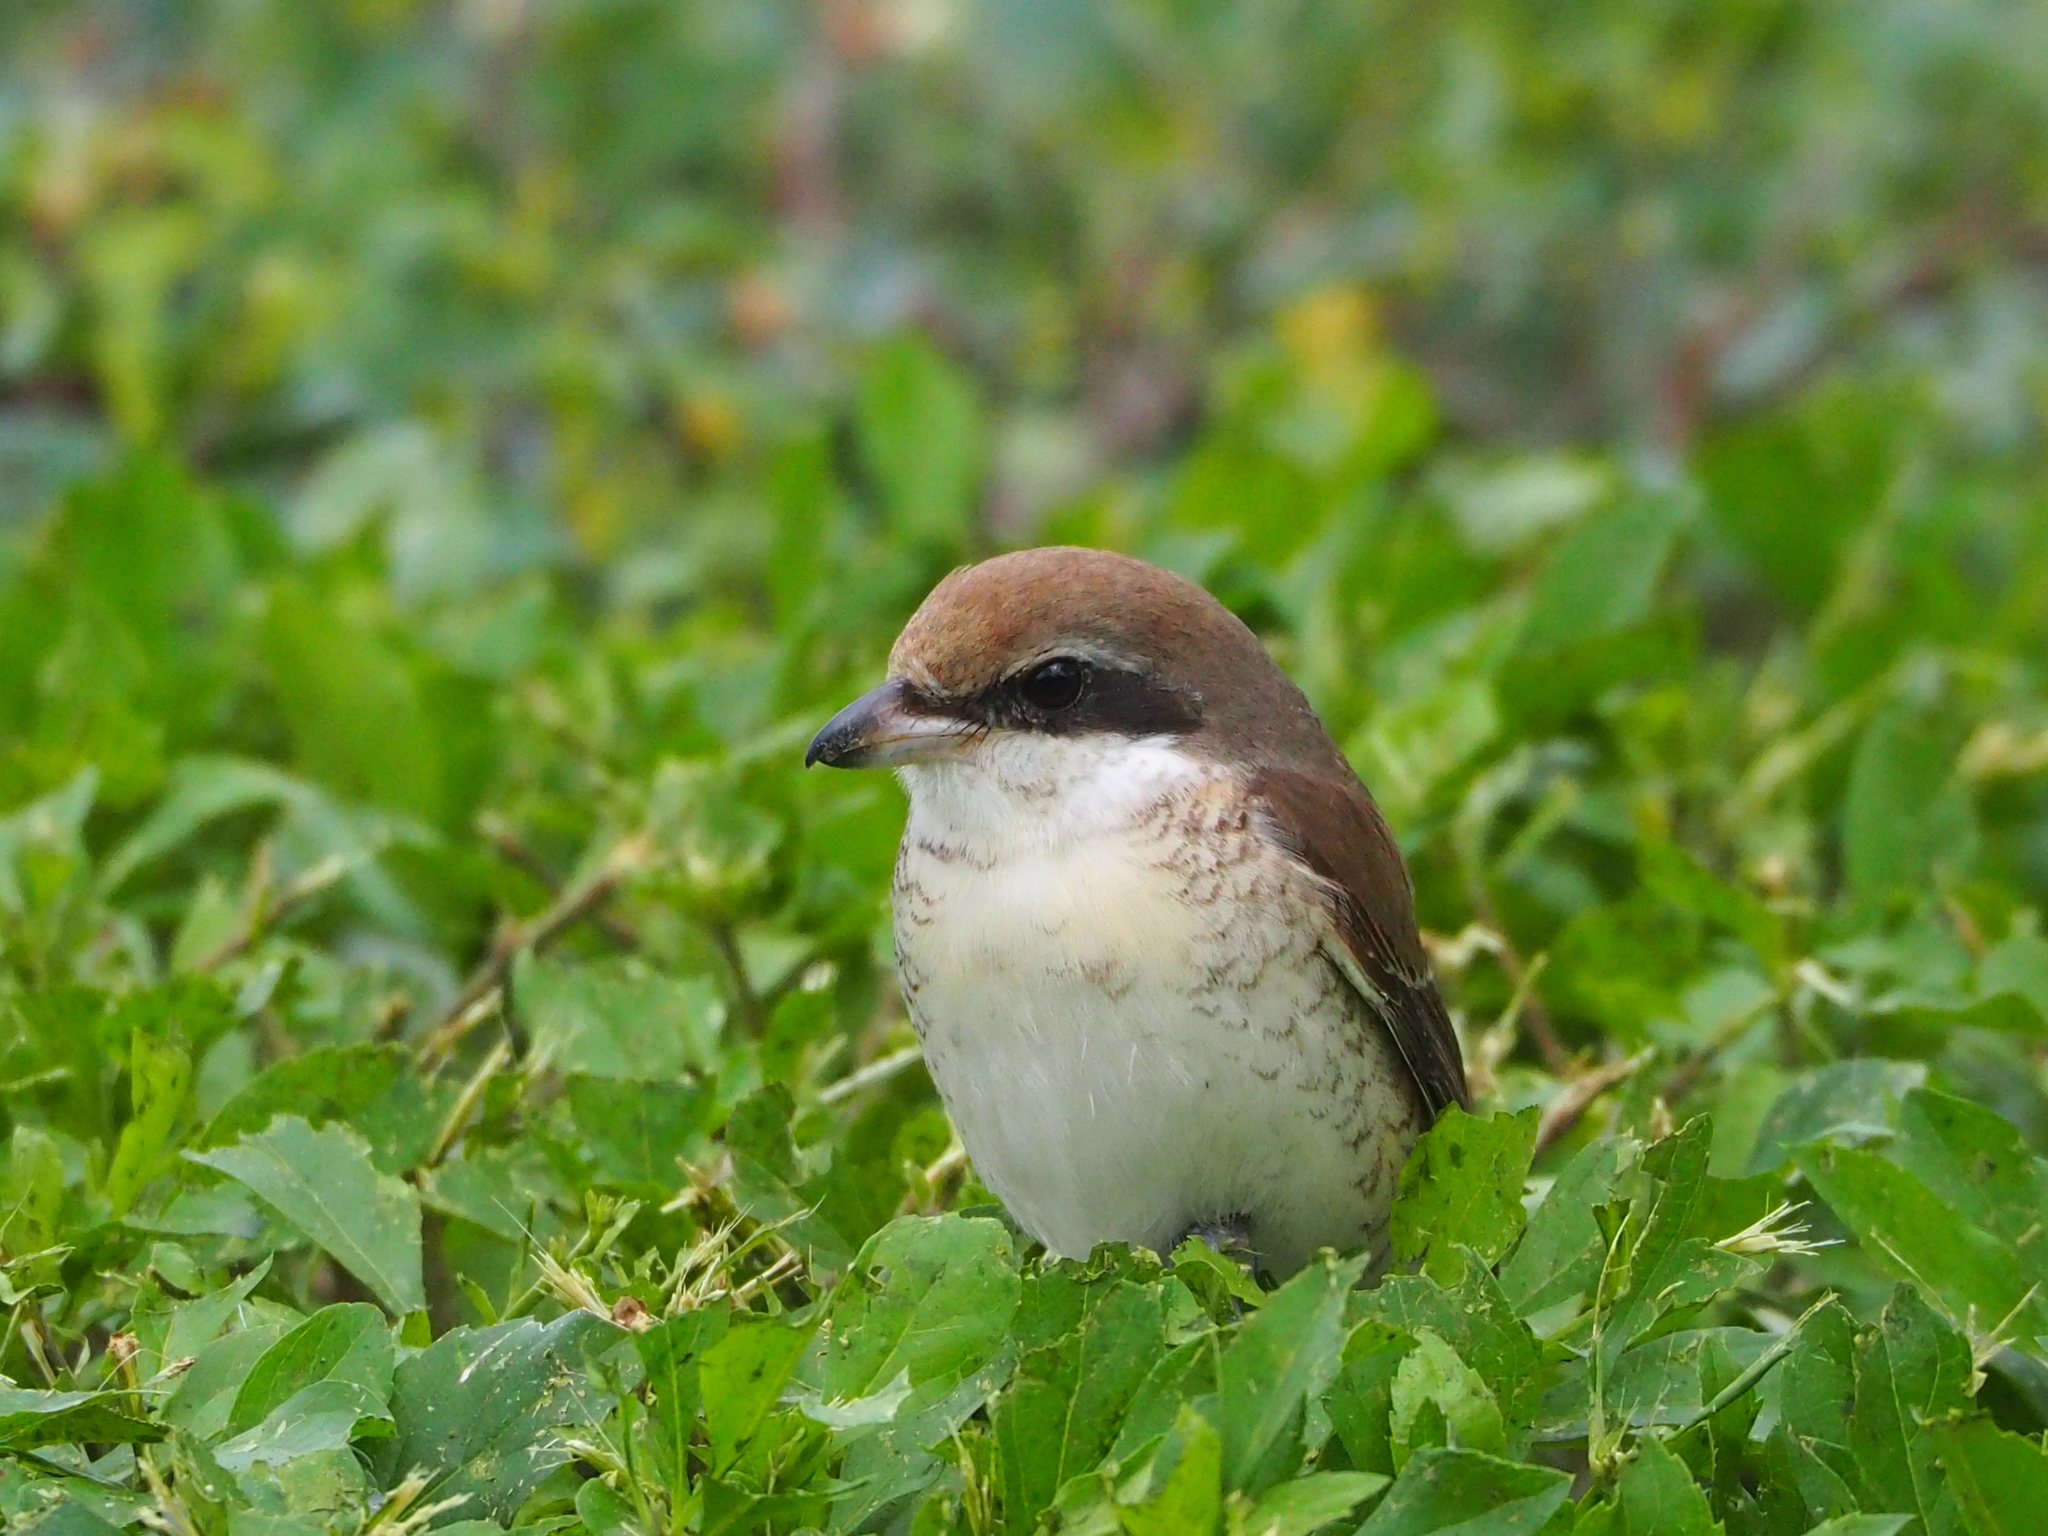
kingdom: Animalia
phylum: Chordata
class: Aves
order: Passeriformes
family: Laniidae
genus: Lanius
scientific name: Lanius cristatus
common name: Brown shrike
